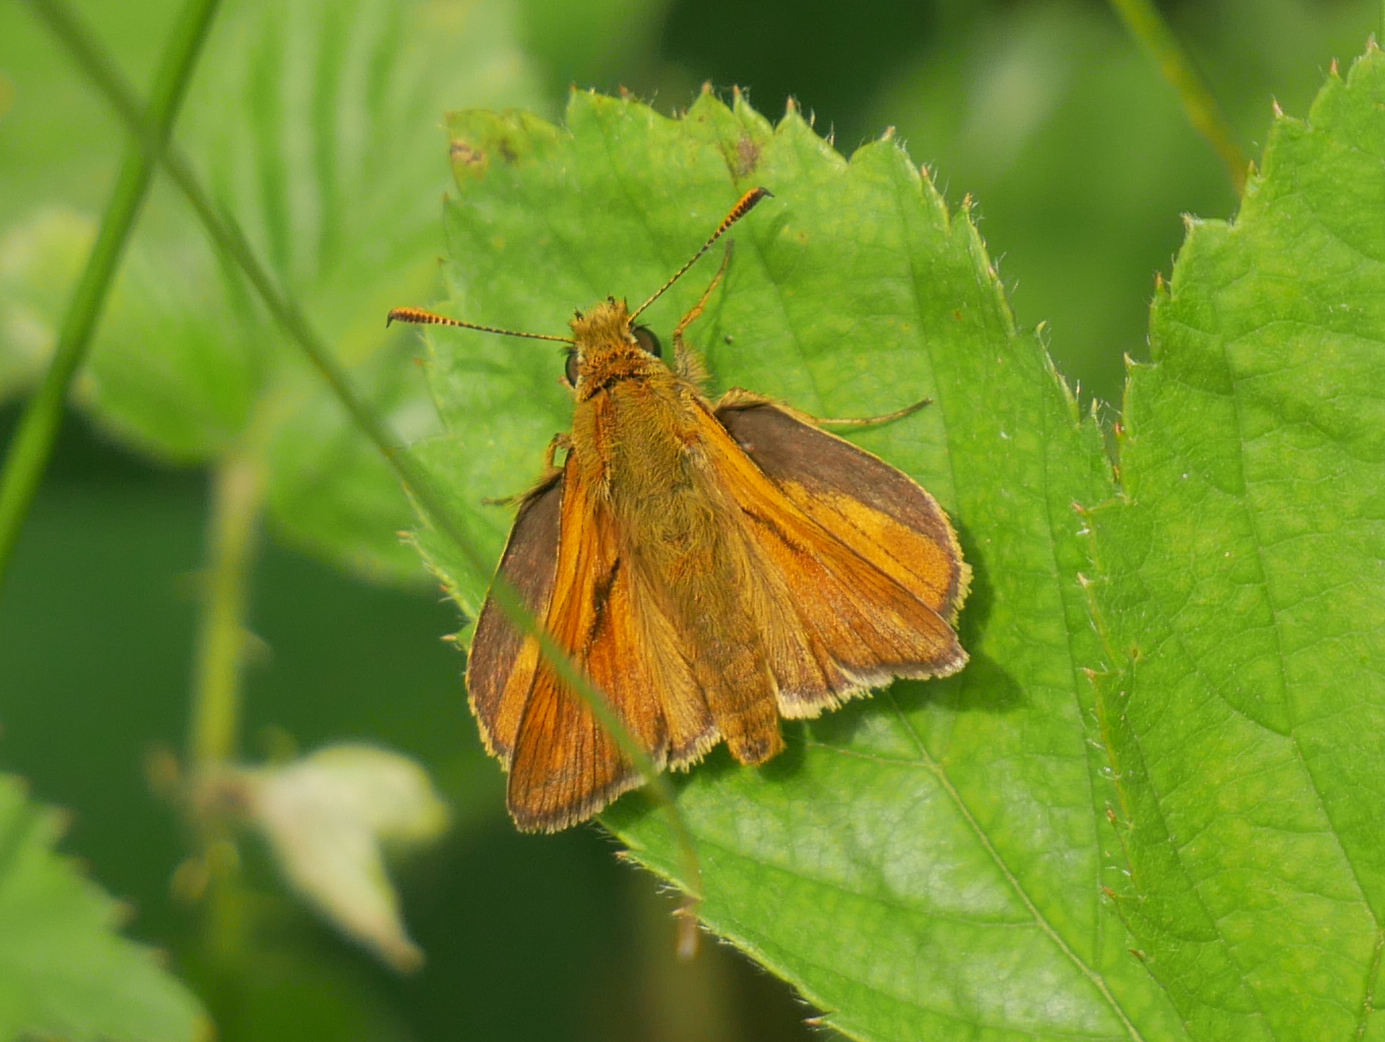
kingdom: Animalia
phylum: Arthropoda
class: Insecta
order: Lepidoptera
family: Hesperiidae
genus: Ochlodes
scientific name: Ochlodes venata
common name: Large skipper
